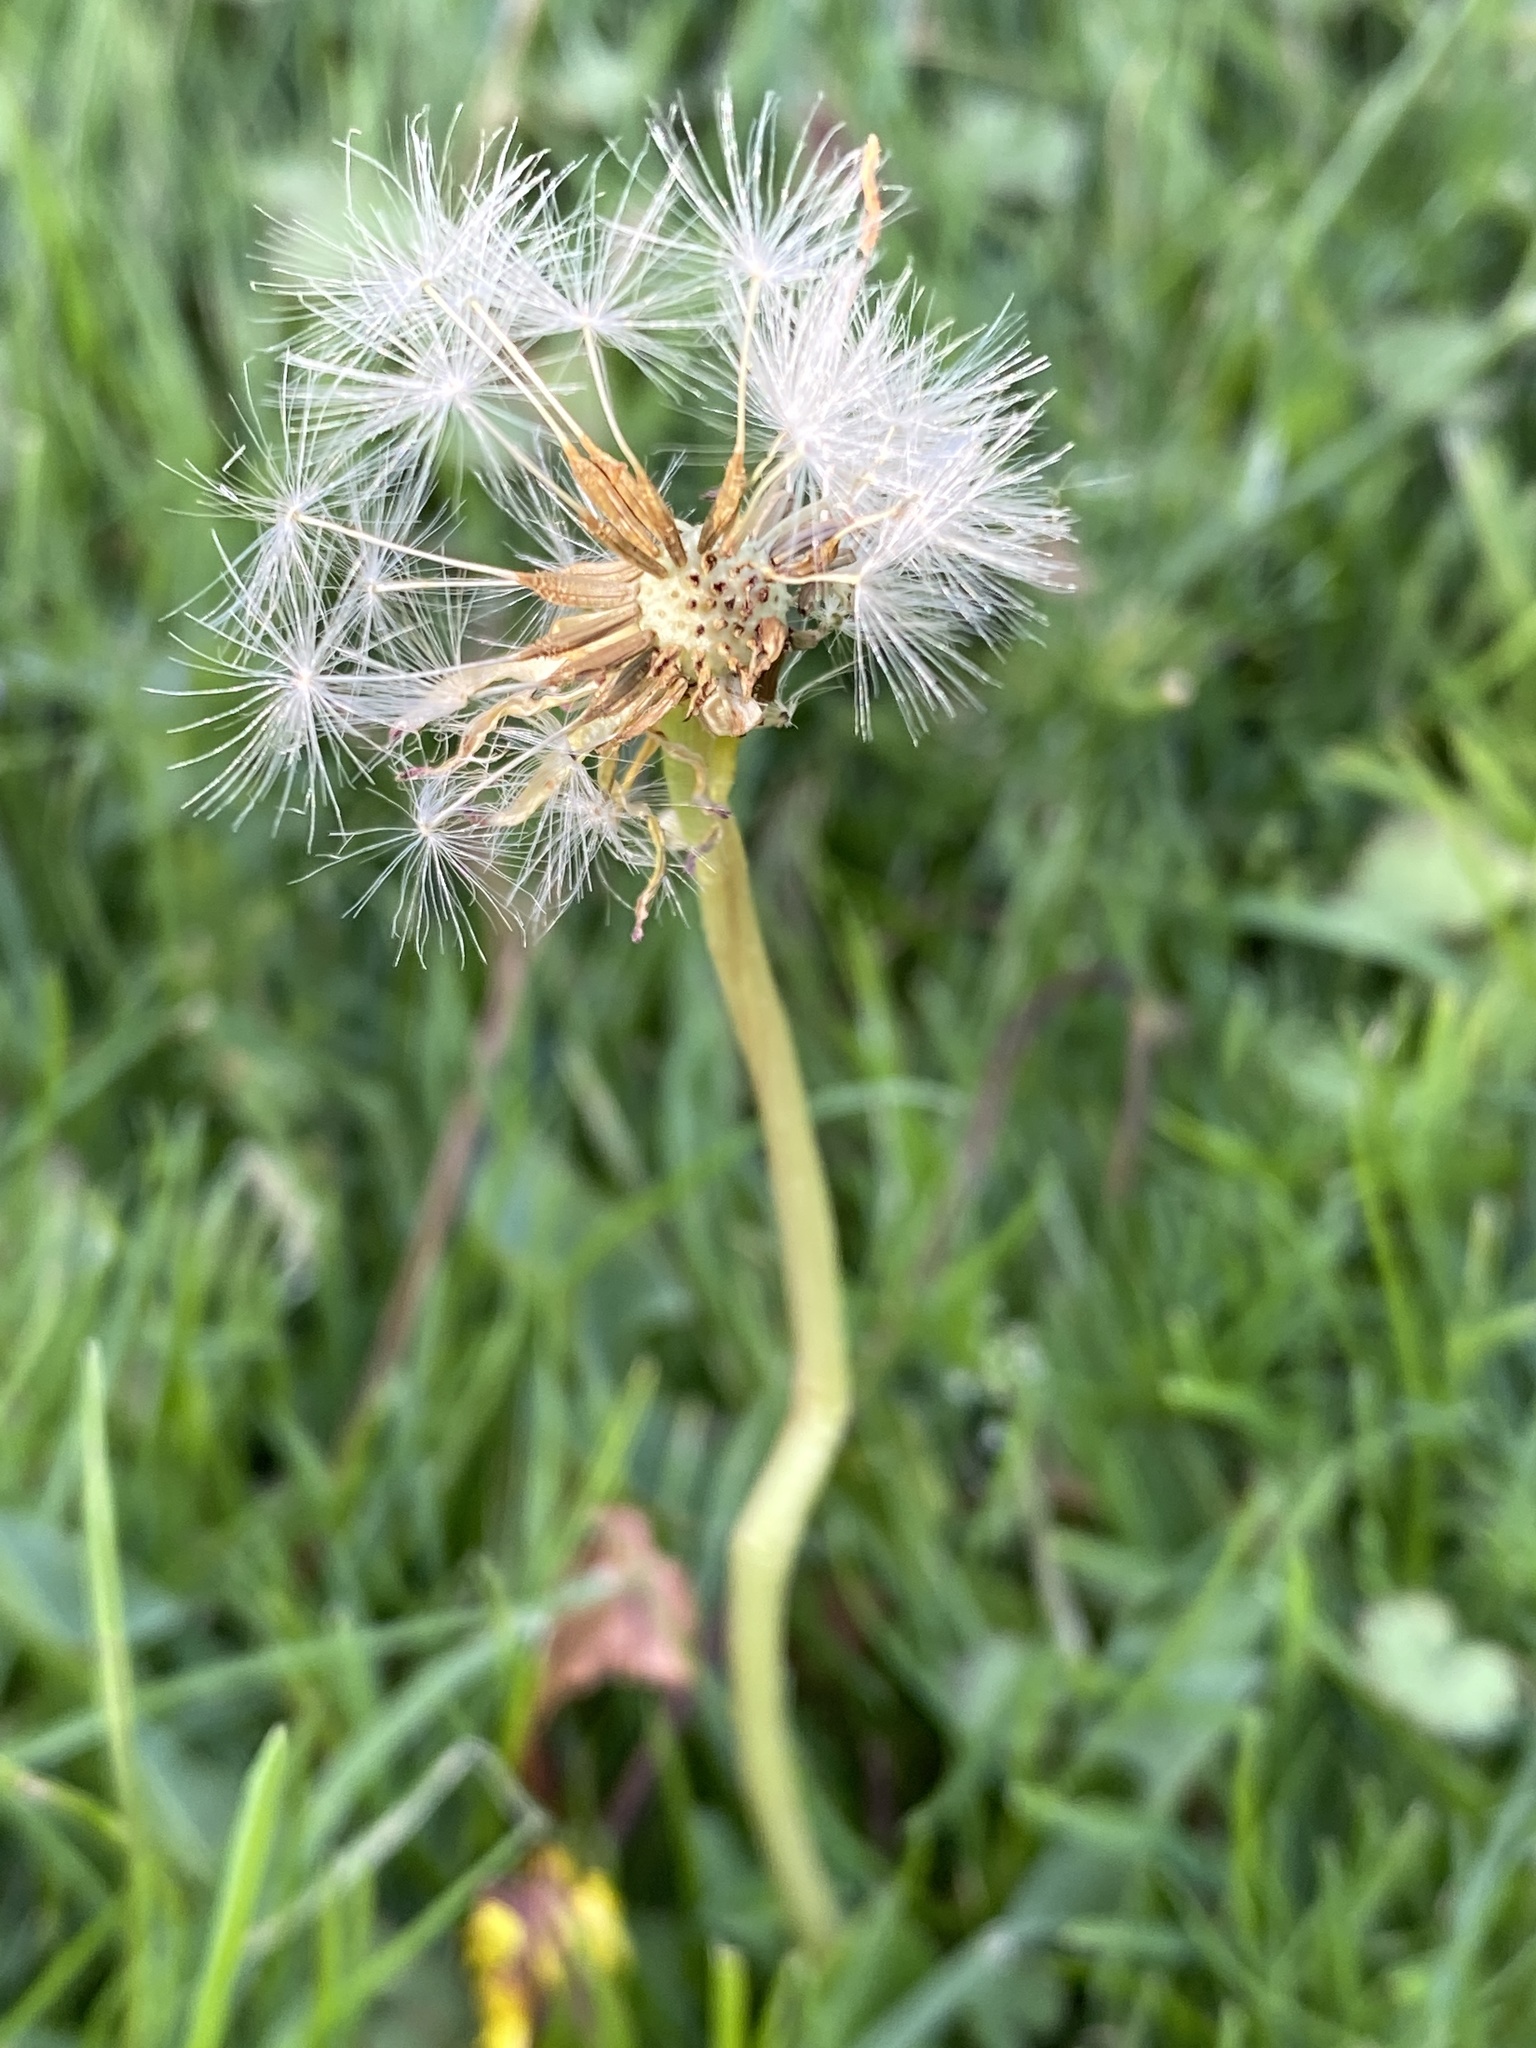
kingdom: Plantae
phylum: Tracheophyta
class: Magnoliopsida
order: Asterales
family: Asteraceae
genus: Taraxacum
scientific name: Taraxacum officinale
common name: Common dandelion
